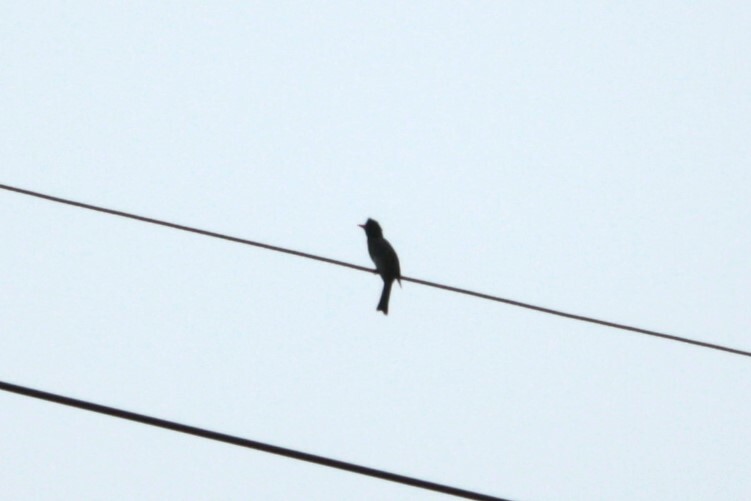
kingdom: Animalia
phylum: Chordata
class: Aves
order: Passeriformes
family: Pycnonotidae
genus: Hypsipetes
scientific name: Hypsipetes leucocephalus
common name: Black bulbul
